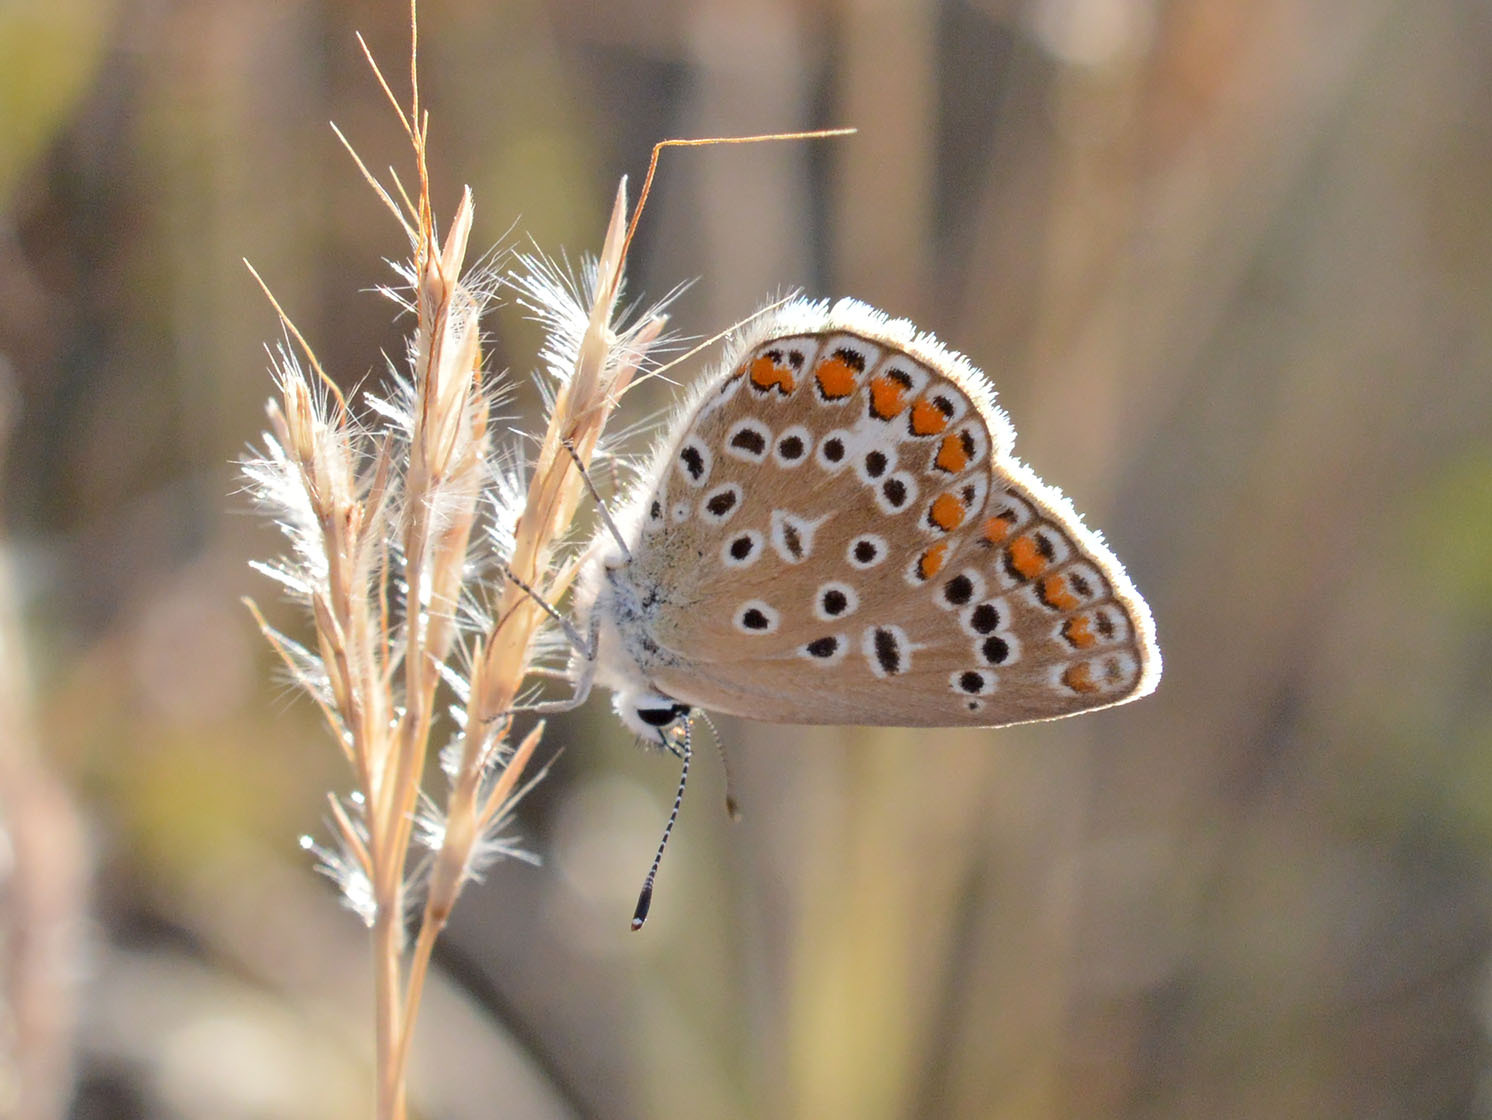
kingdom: Animalia
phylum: Arthropoda
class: Insecta
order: Lepidoptera
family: Lycaenidae
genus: Polyommatus
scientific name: Polyommatus icarus
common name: Common blue
